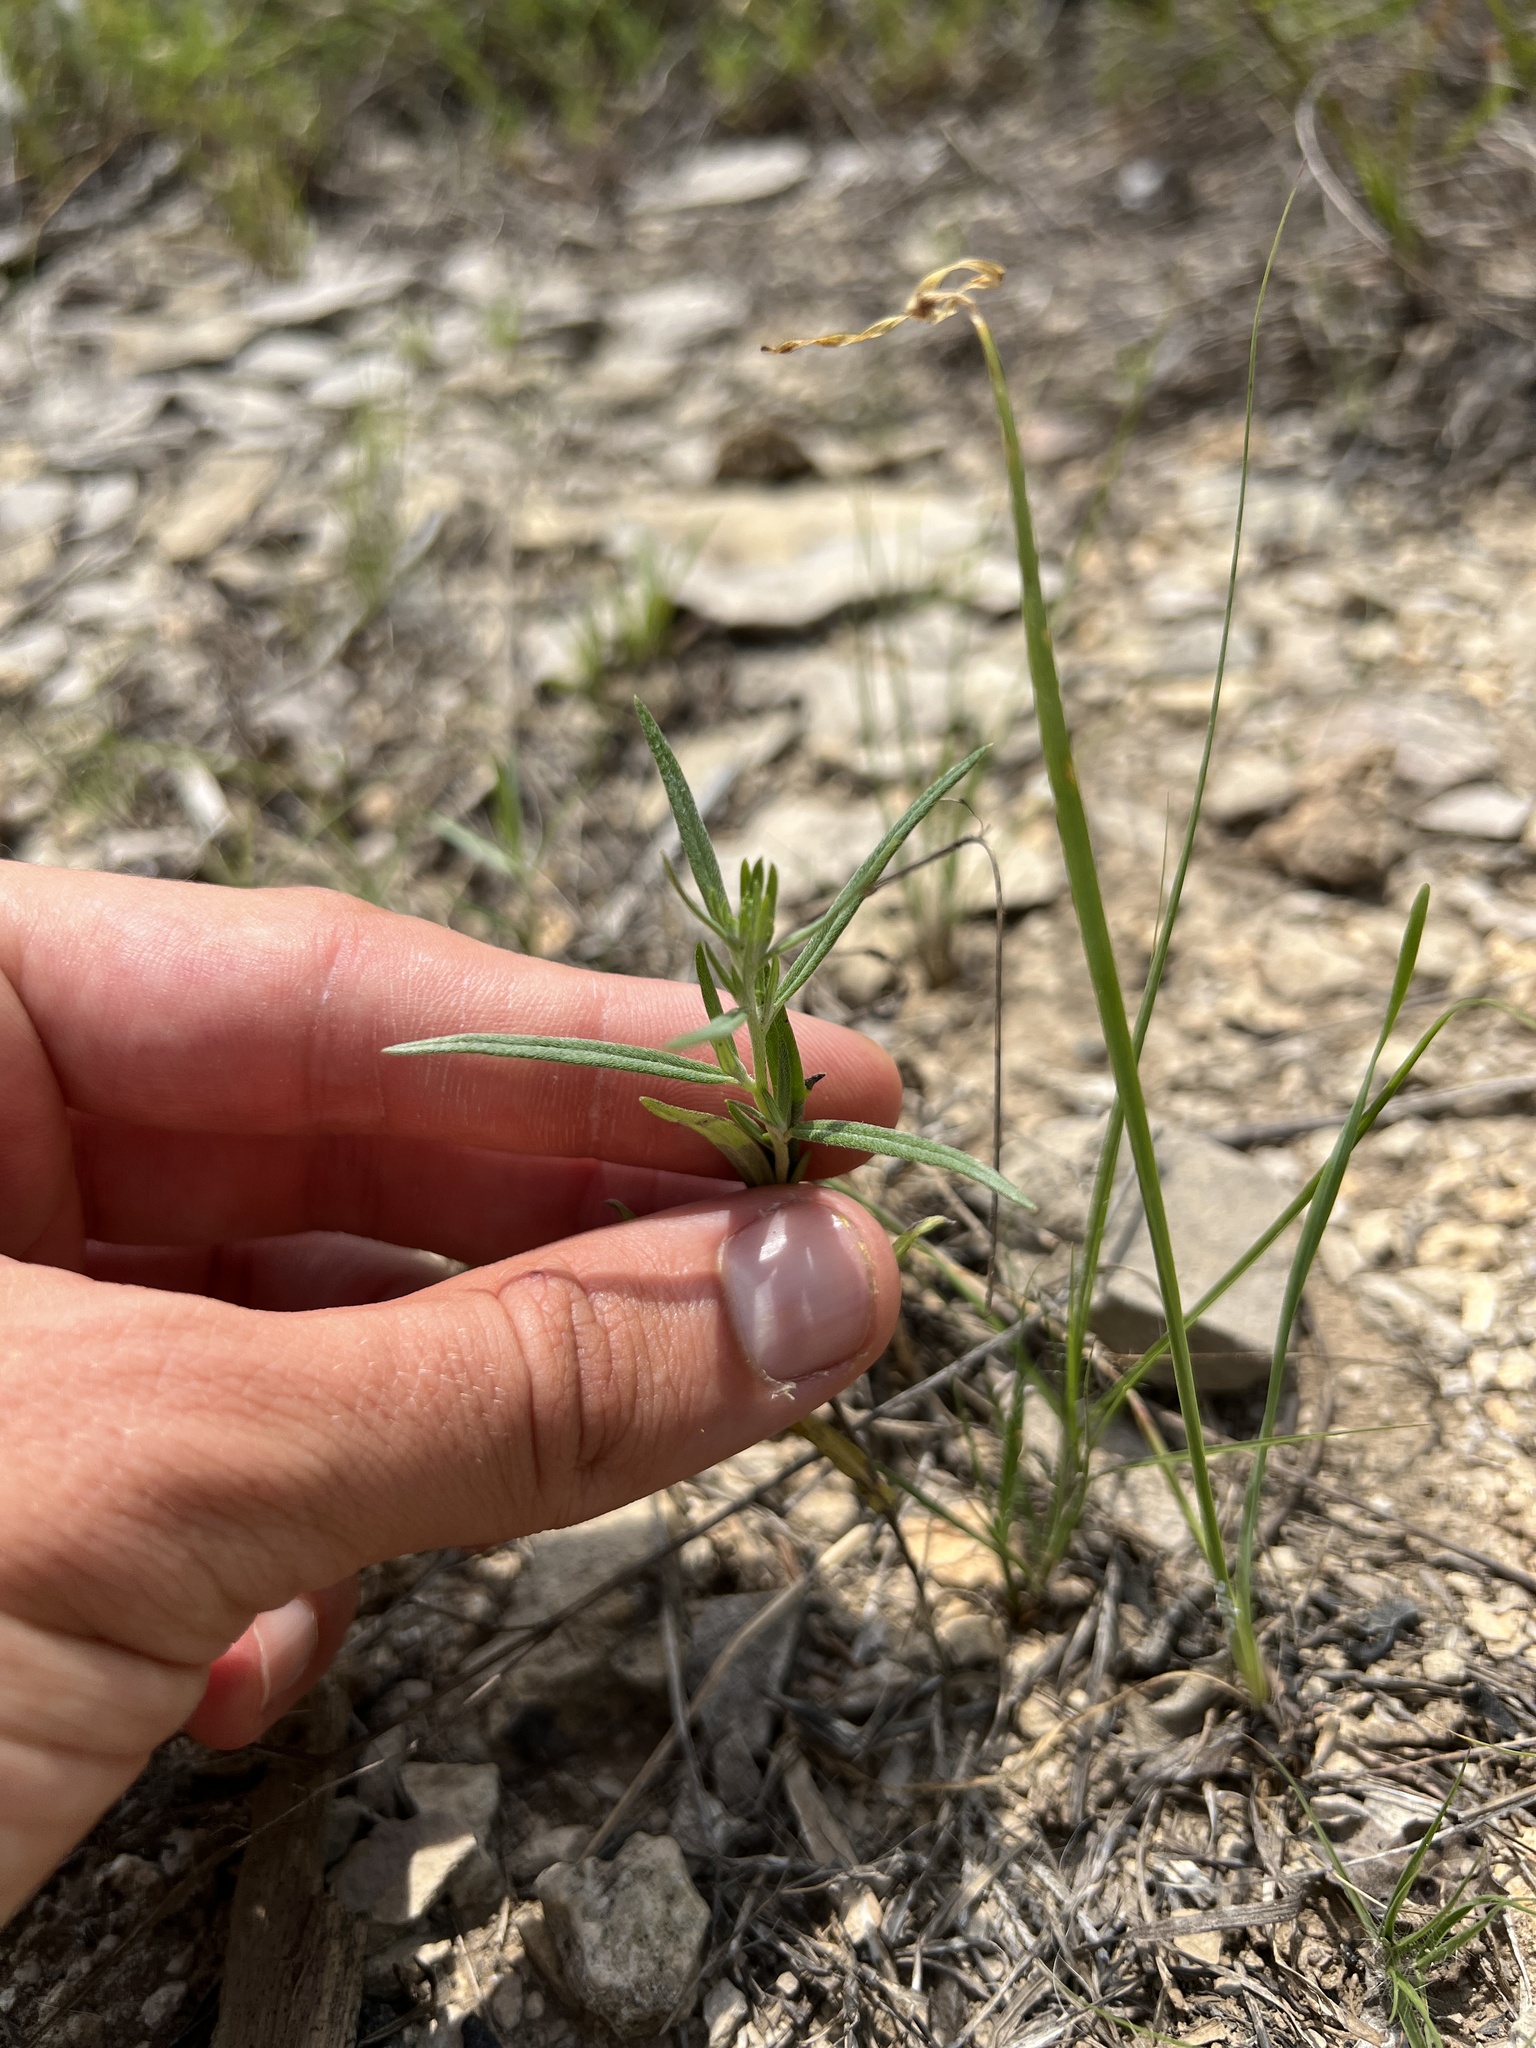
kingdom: Plantae
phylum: Tracheophyta
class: Magnoliopsida
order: Boraginales
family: Heliotropiaceae
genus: Euploca
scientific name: Euploca tenella
